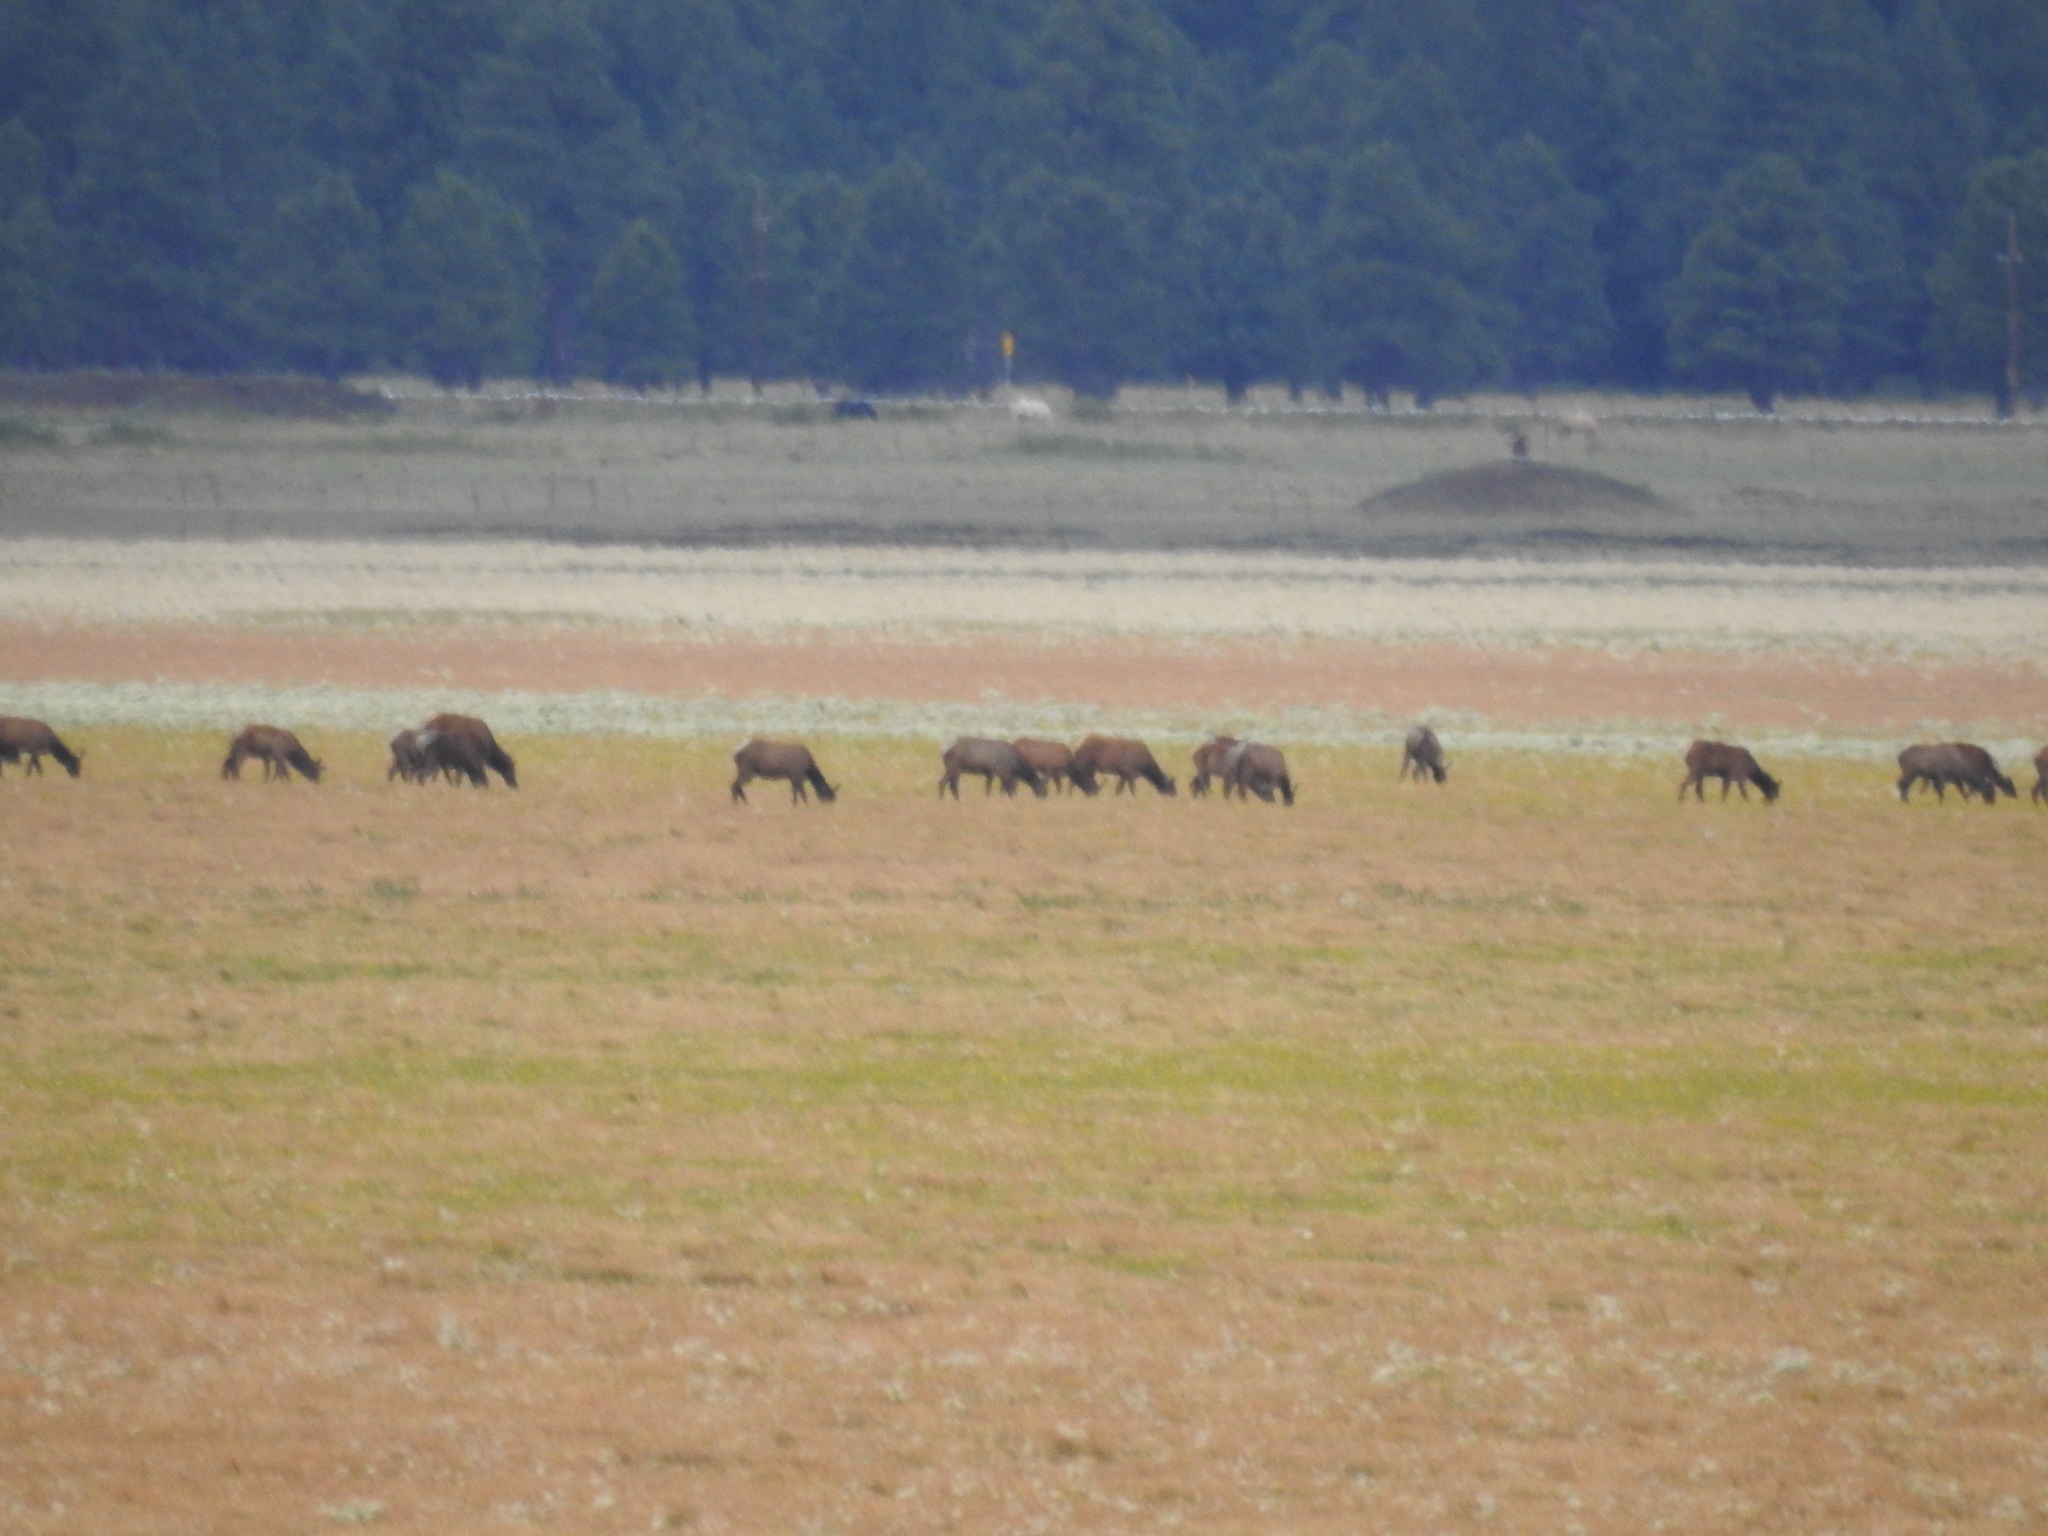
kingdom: Animalia
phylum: Chordata
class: Mammalia
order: Artiodactyla
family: Cervidae
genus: Cervus
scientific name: Cervus elaphus
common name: Red deer
